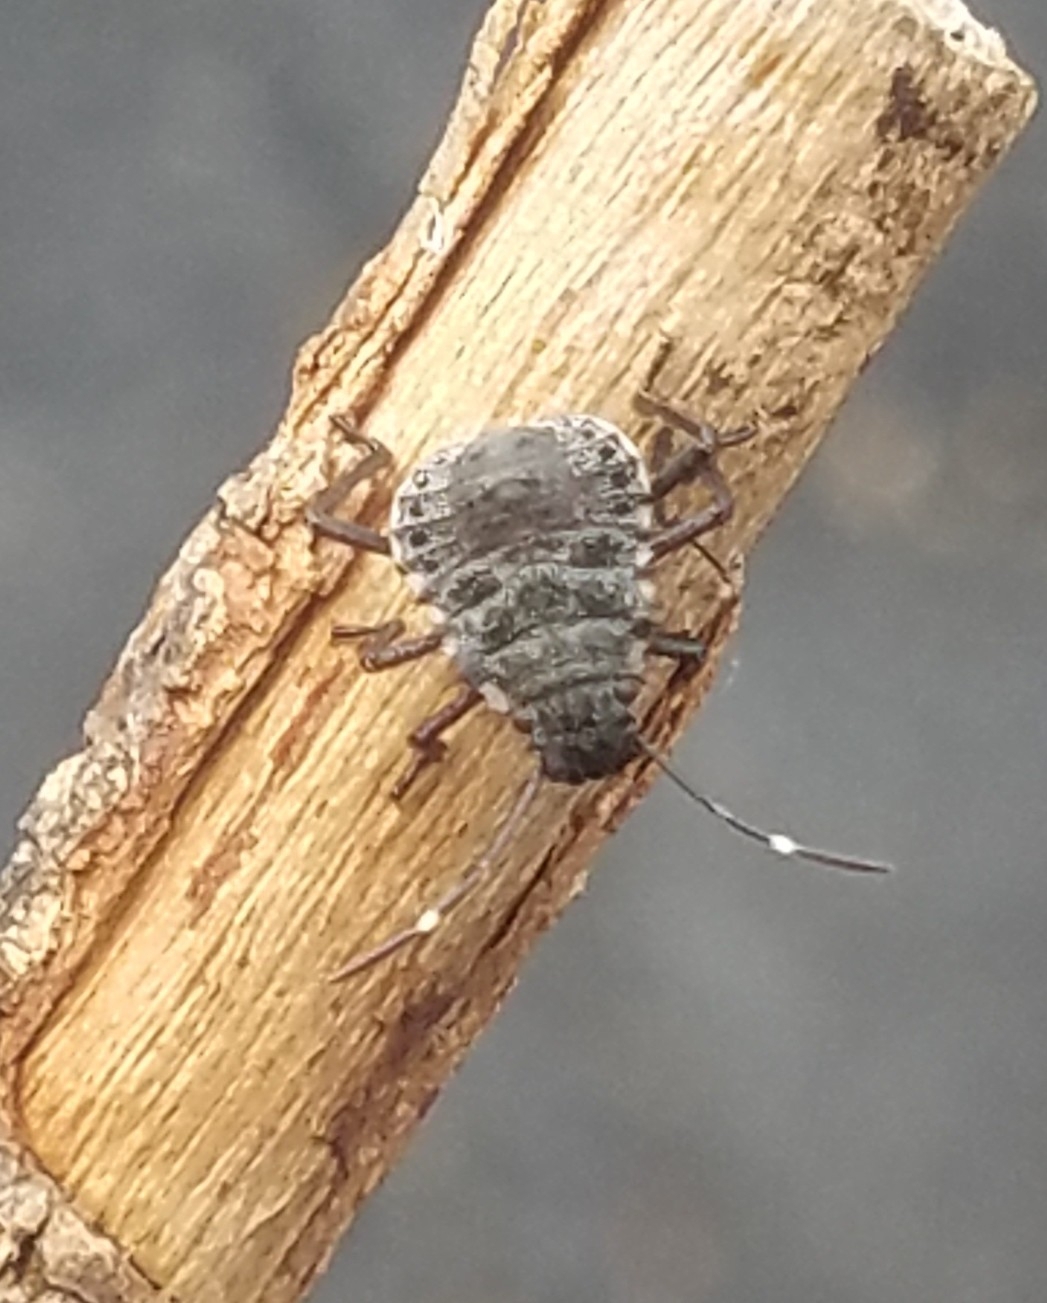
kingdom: Animalia
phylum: Arthropoda
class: Insecta
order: Hemiptera
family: Pentatomidae
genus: Halyomorpha
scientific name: Halyomorpha halys
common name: Brown marmorated stink bug
